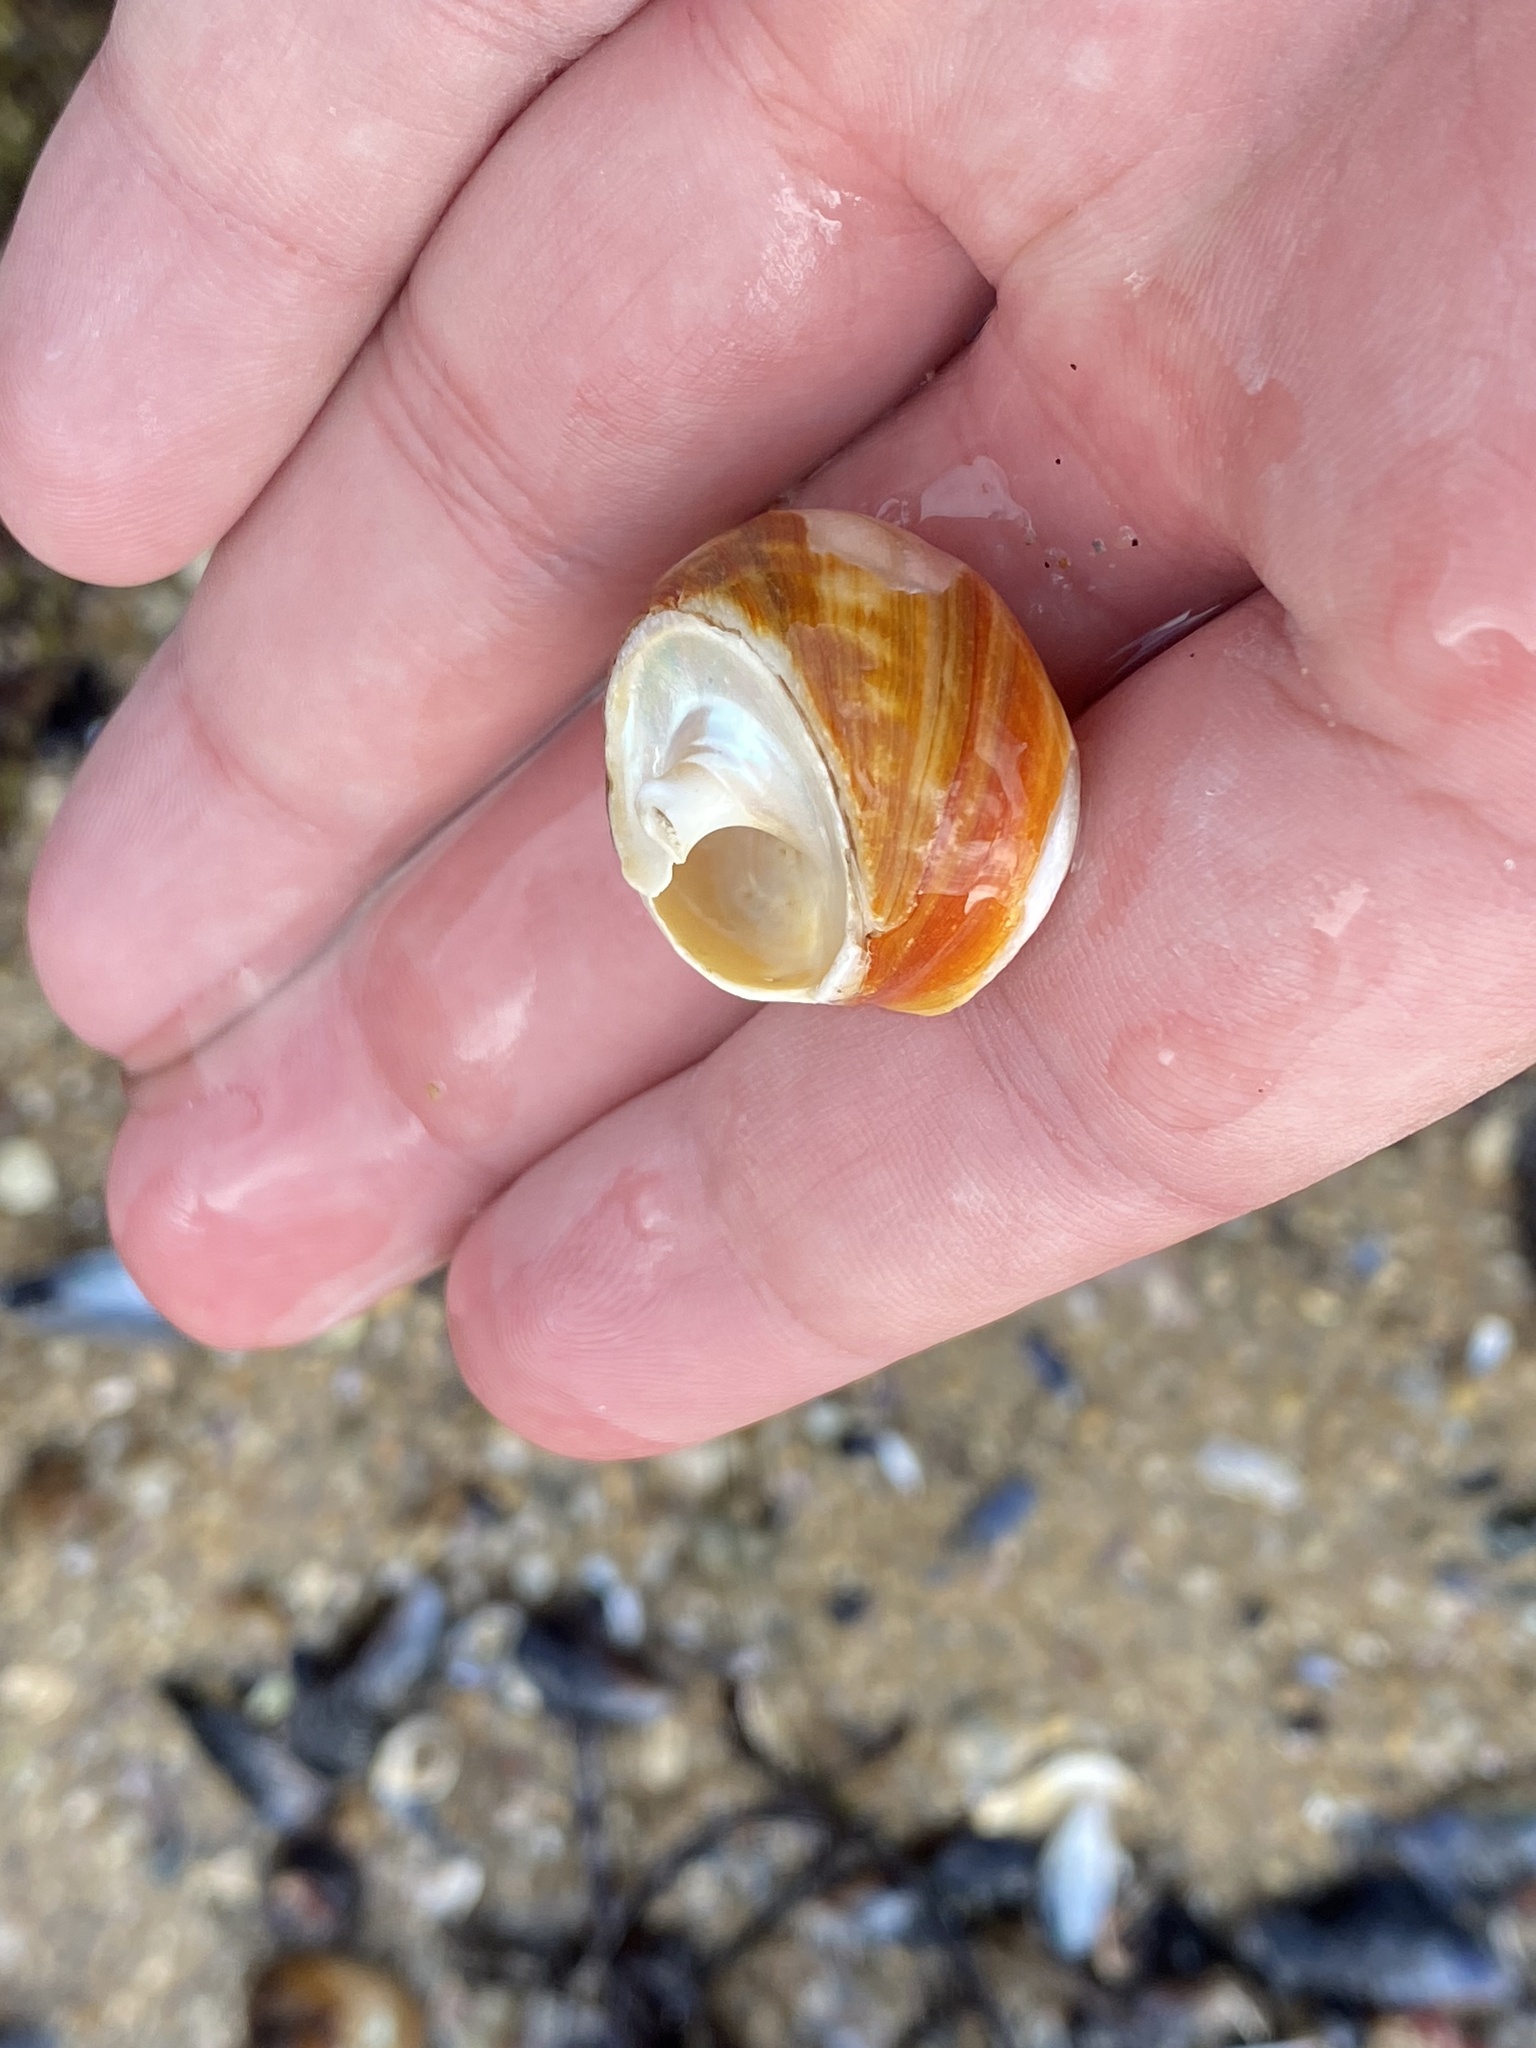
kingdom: Animalia
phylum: Mollusca
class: Gastropoda
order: Trochida
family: Tegulidae
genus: Tegula
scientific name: Tegula brunnea
